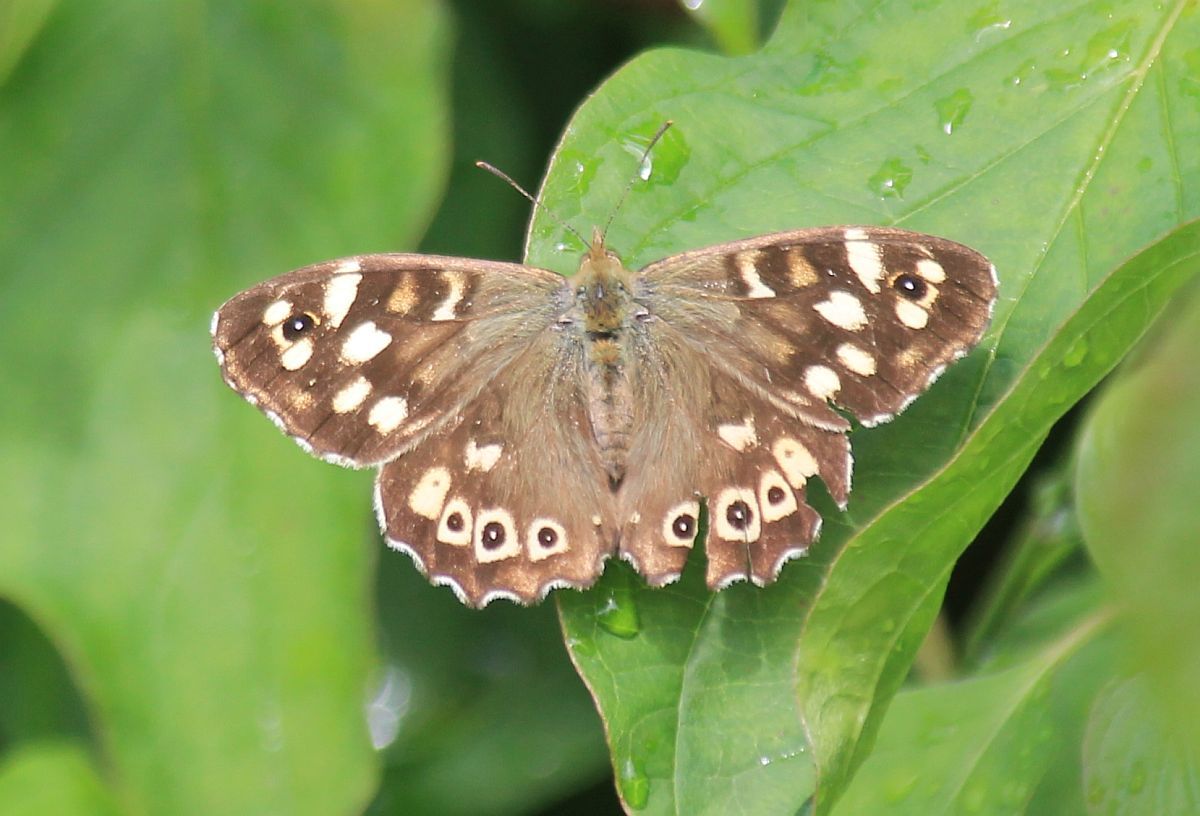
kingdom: Animalia
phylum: Arthropoda
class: Insecta
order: Lepidoptera
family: Nymphalidae
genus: Pararge
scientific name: Pararge aegeria
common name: Speckled wood
